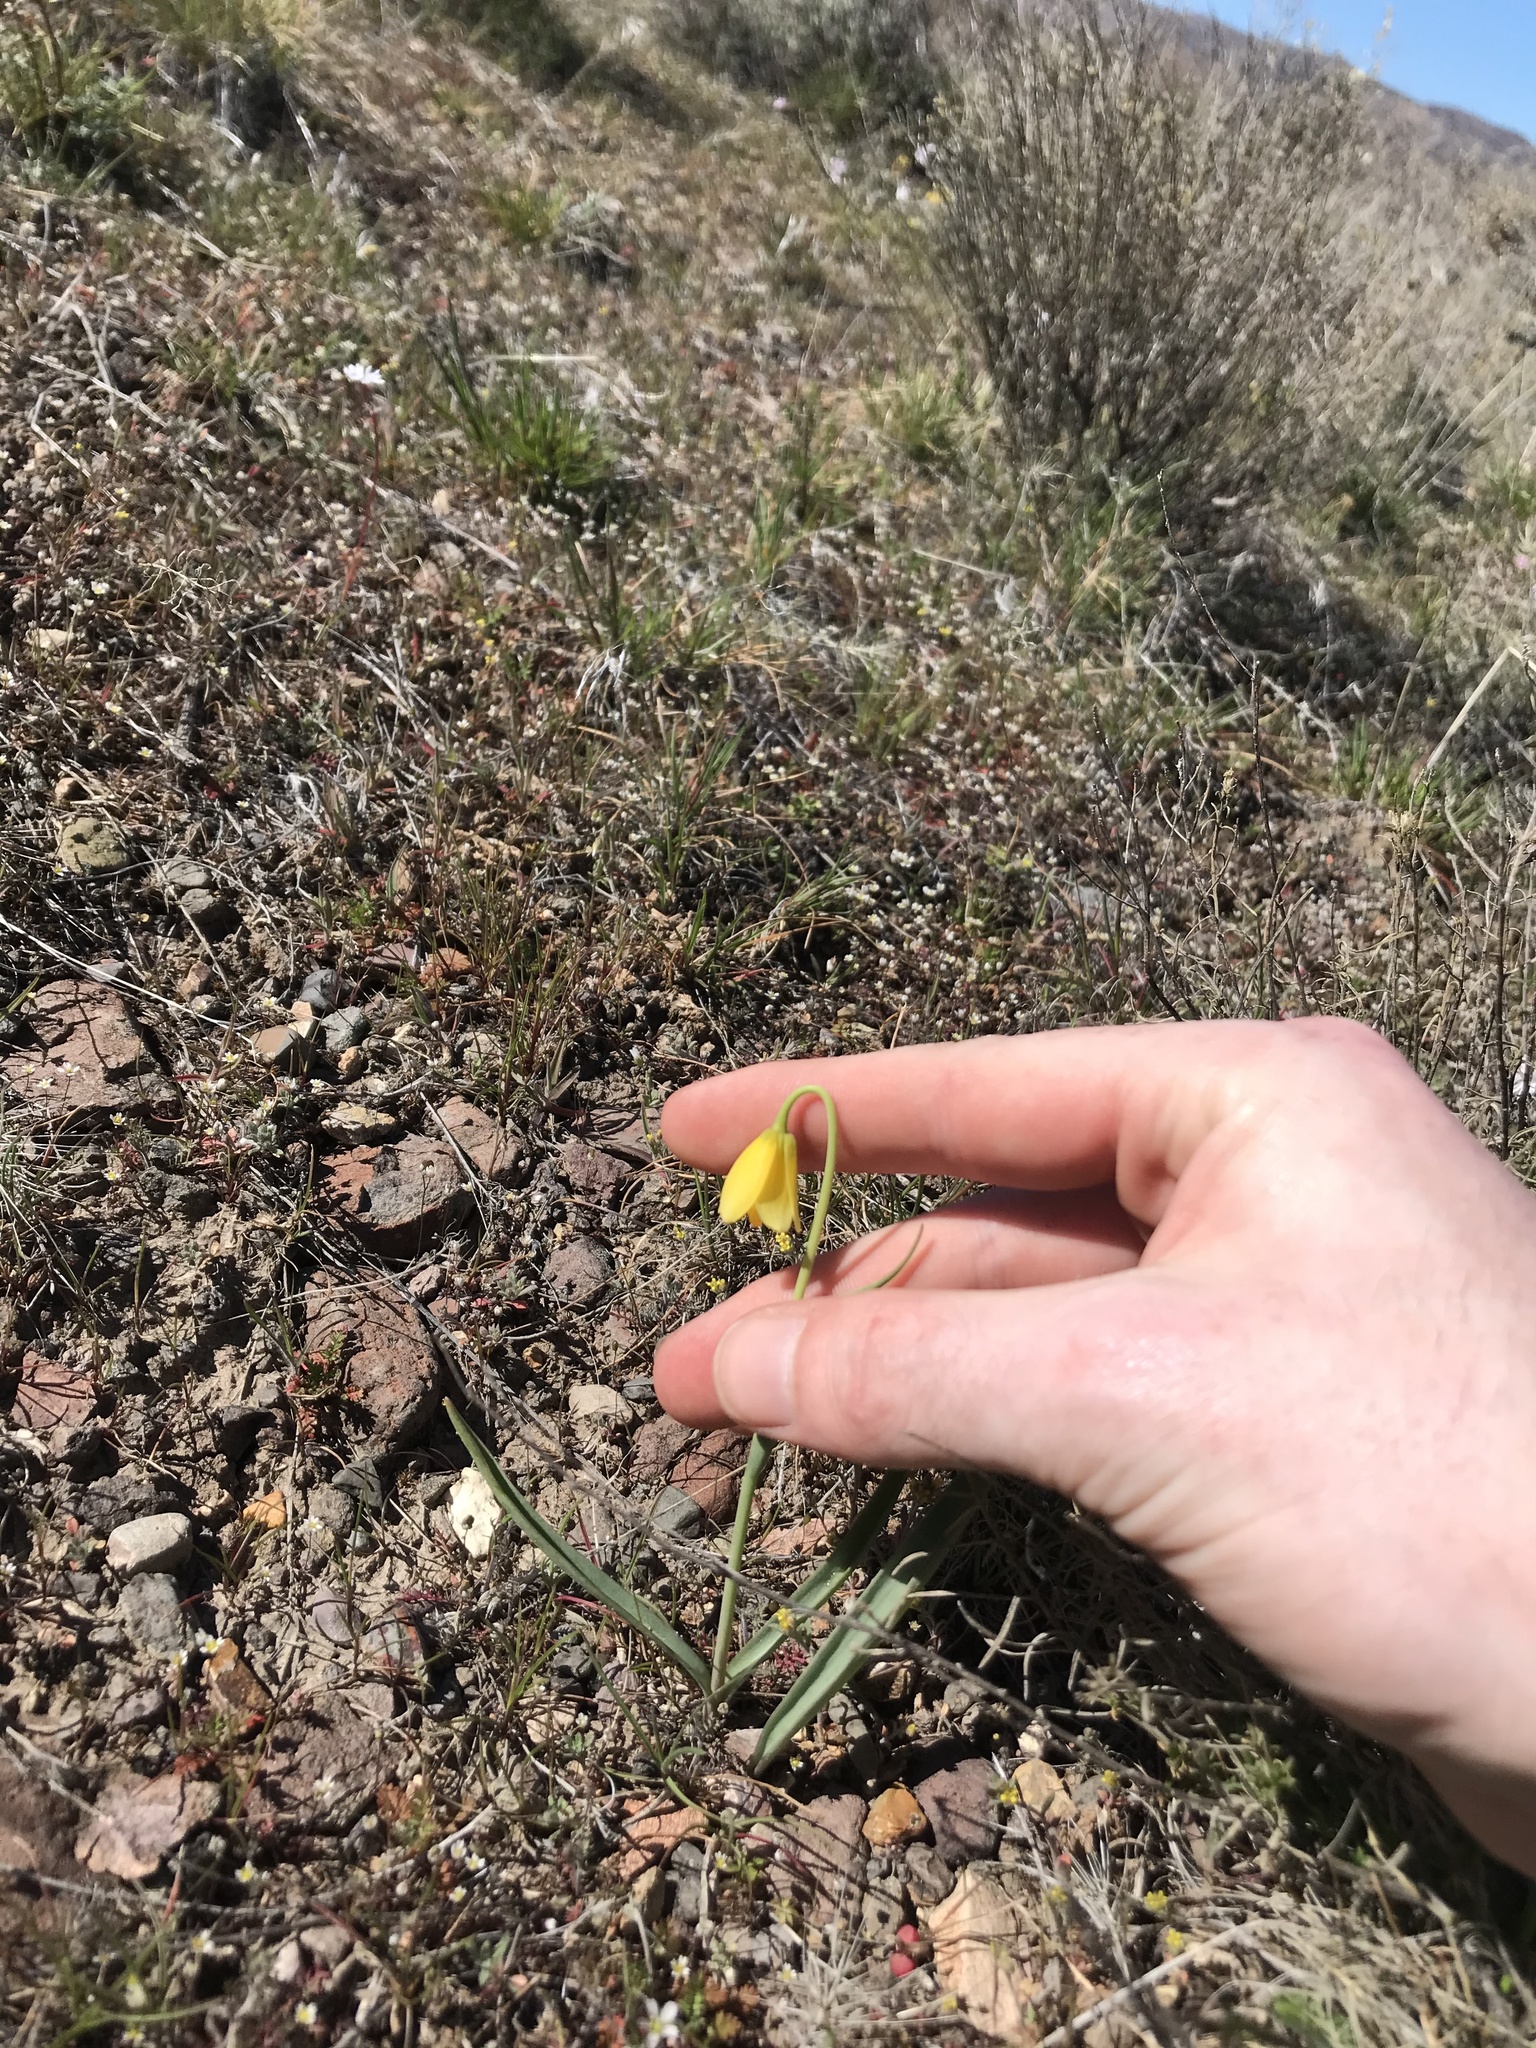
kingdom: Plantae
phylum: Tracheophyta
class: Liliopsida
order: Liliales
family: Liliaceae
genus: Fritillaria
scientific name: Fritillaria pudica
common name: Yellow fritillary
